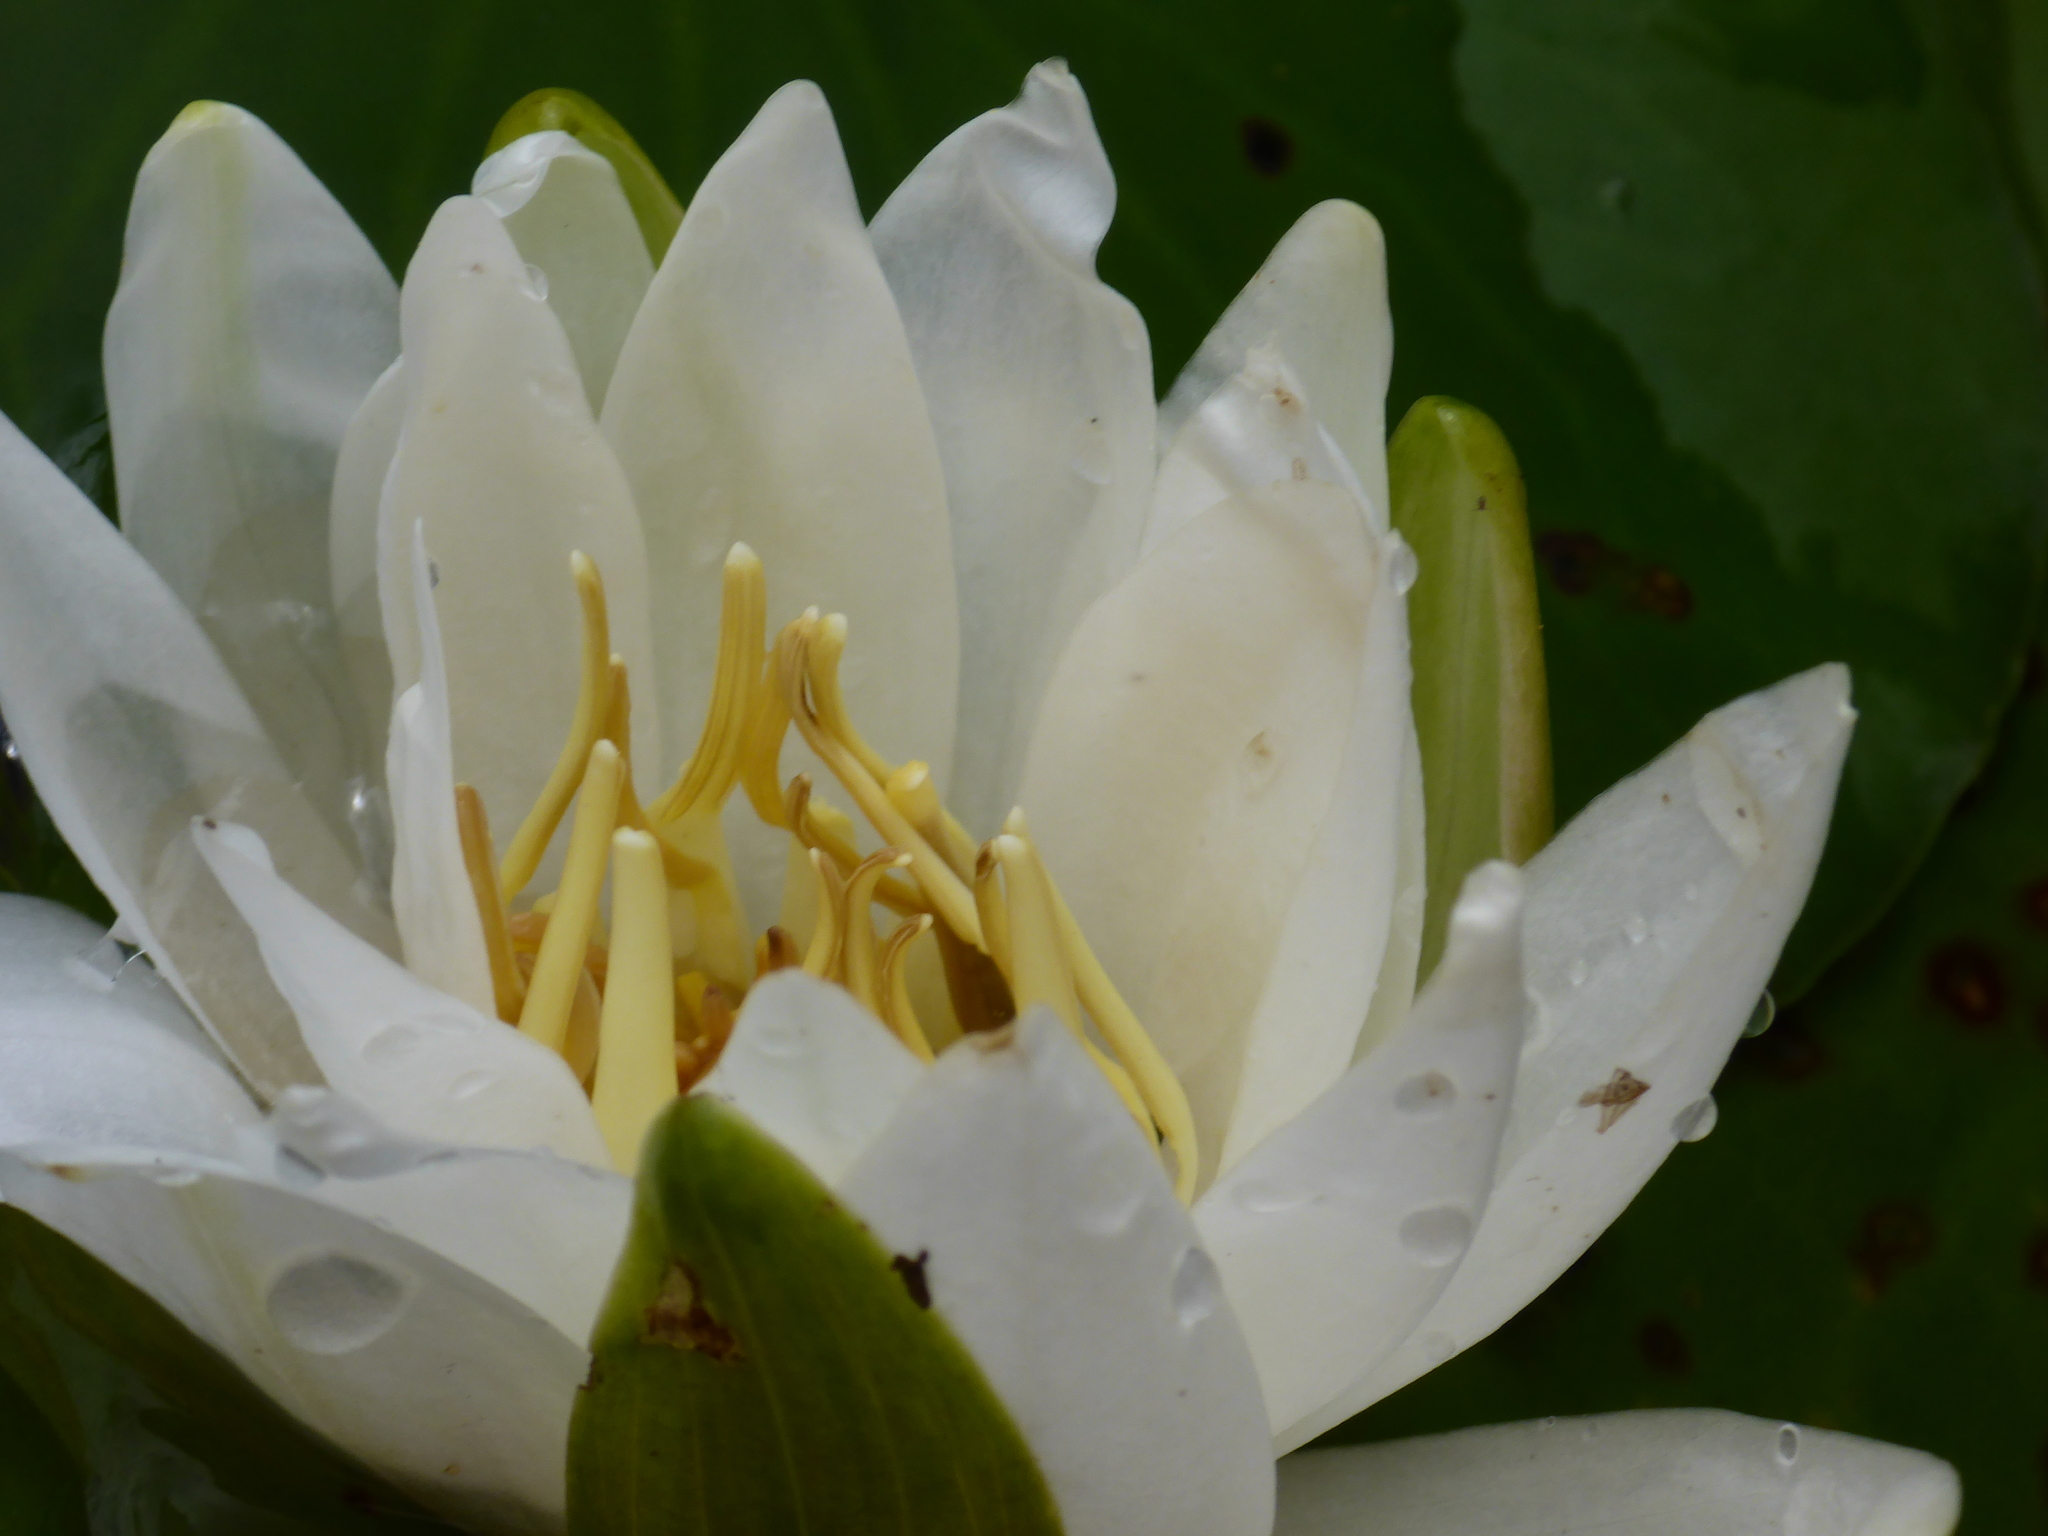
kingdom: Plantae
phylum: Tracheophyta
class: Magnoliopsida
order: Nymphaeales
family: Nymphaeaceae
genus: Nymphaea
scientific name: Nymphaea odorata
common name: Fragrant water-lily
